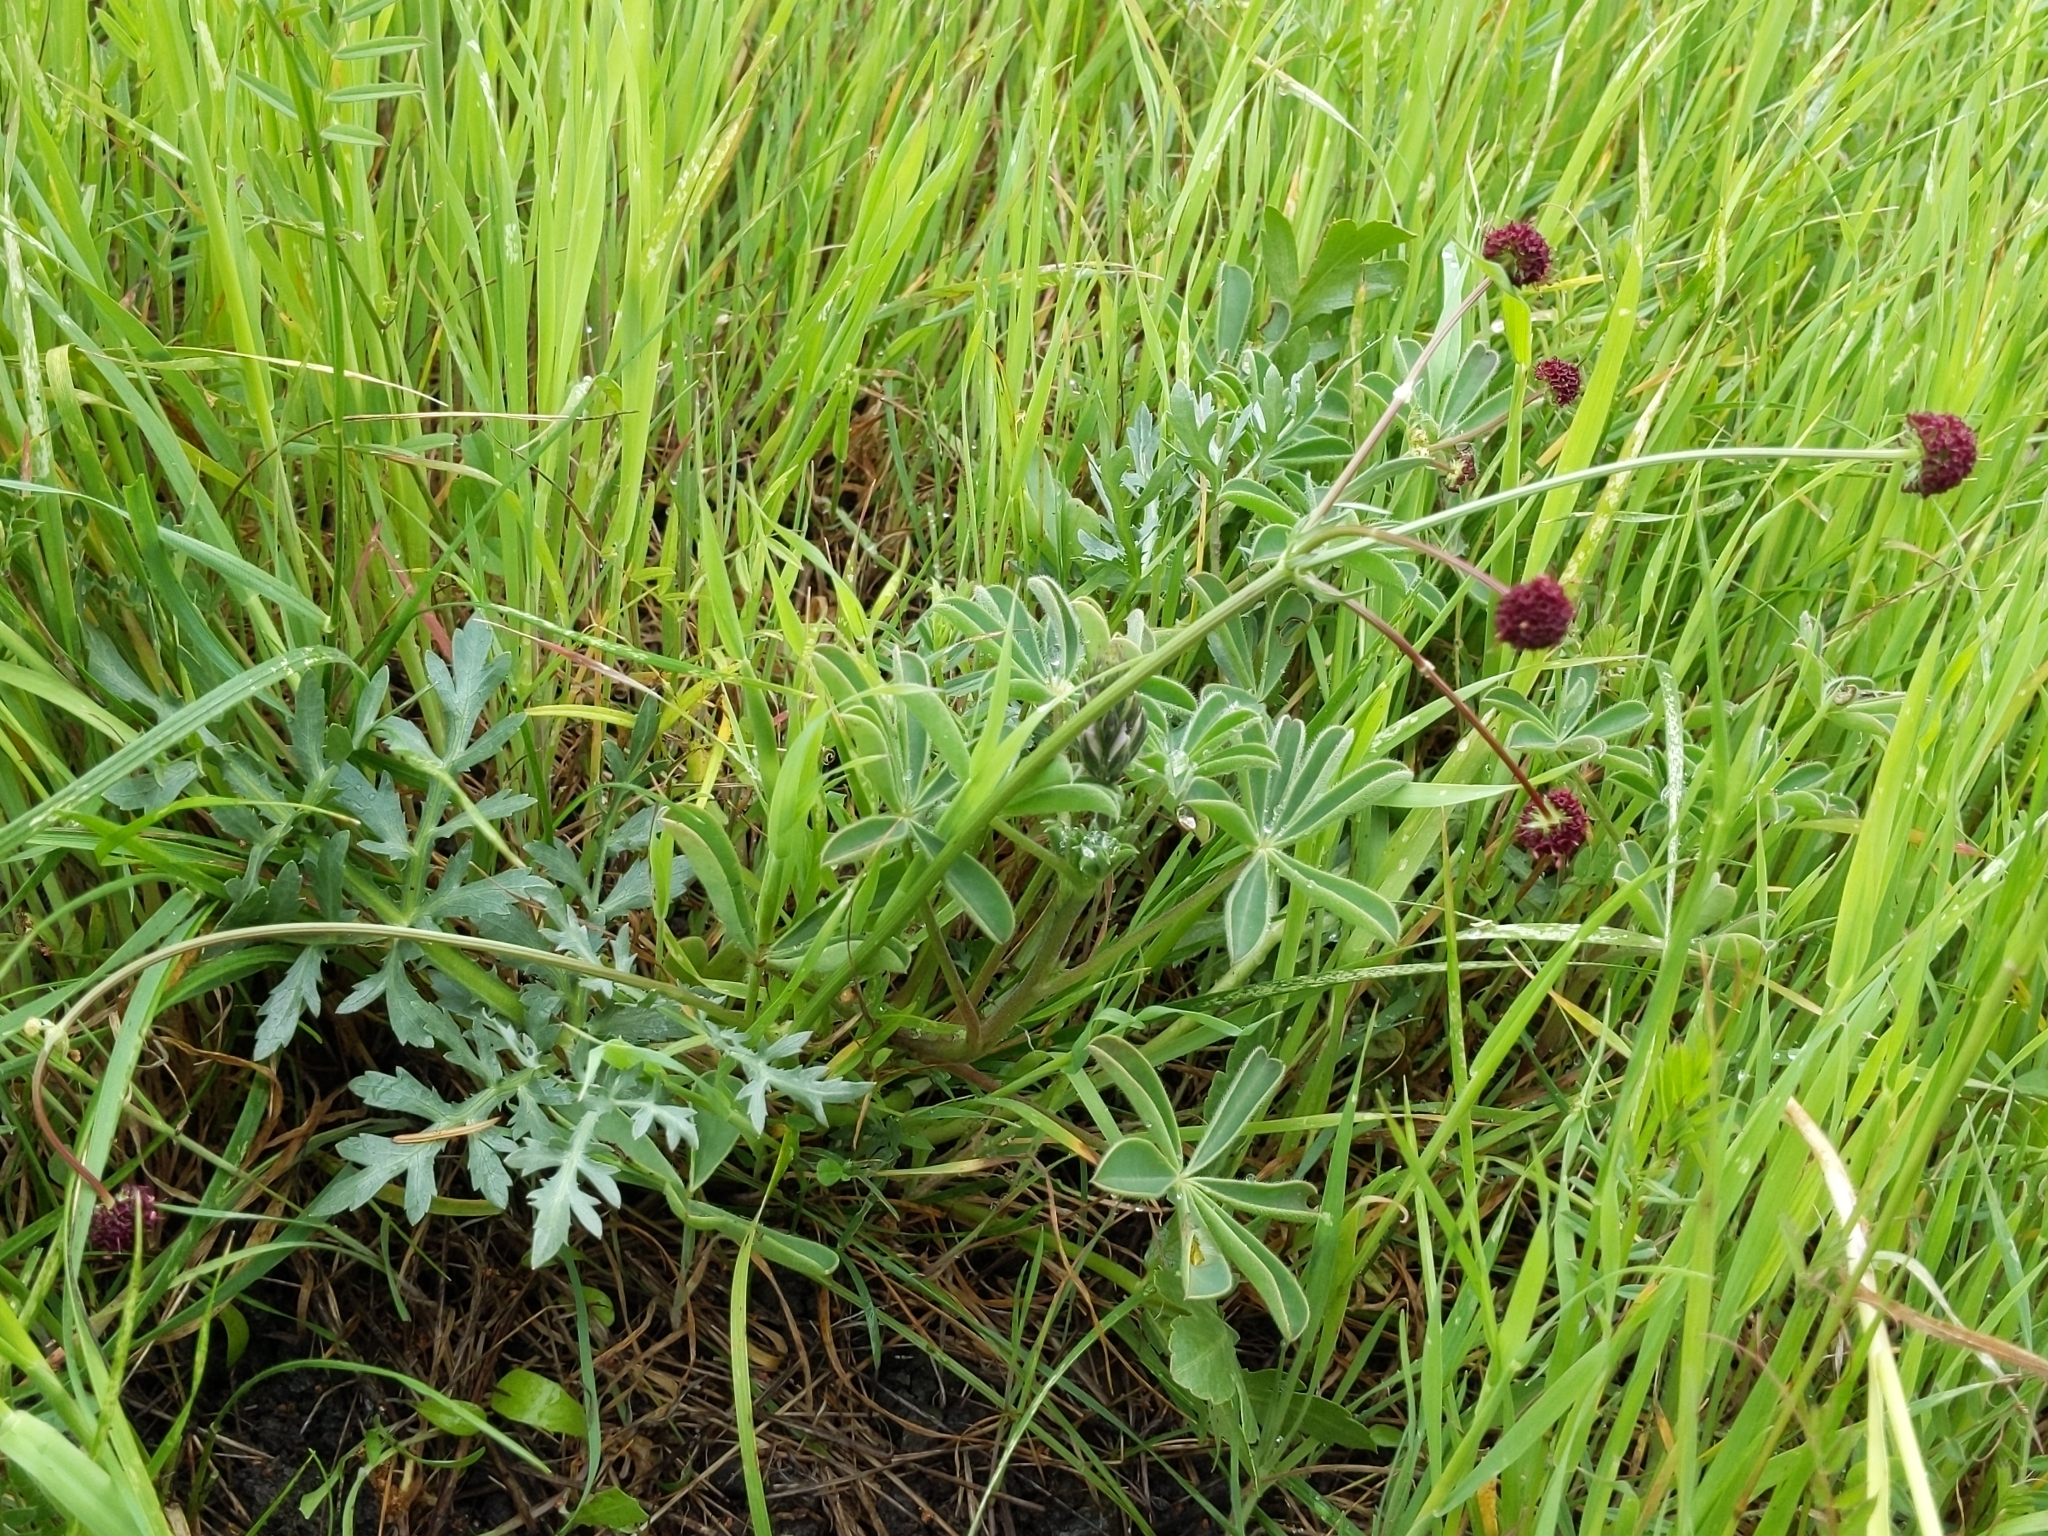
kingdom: Plantae
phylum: Tracheophyta
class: Magnoliopsida
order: Apiales
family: Apiaceae
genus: Sanicula
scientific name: Sanicula bipinnatifida
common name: Shoe-buttons
